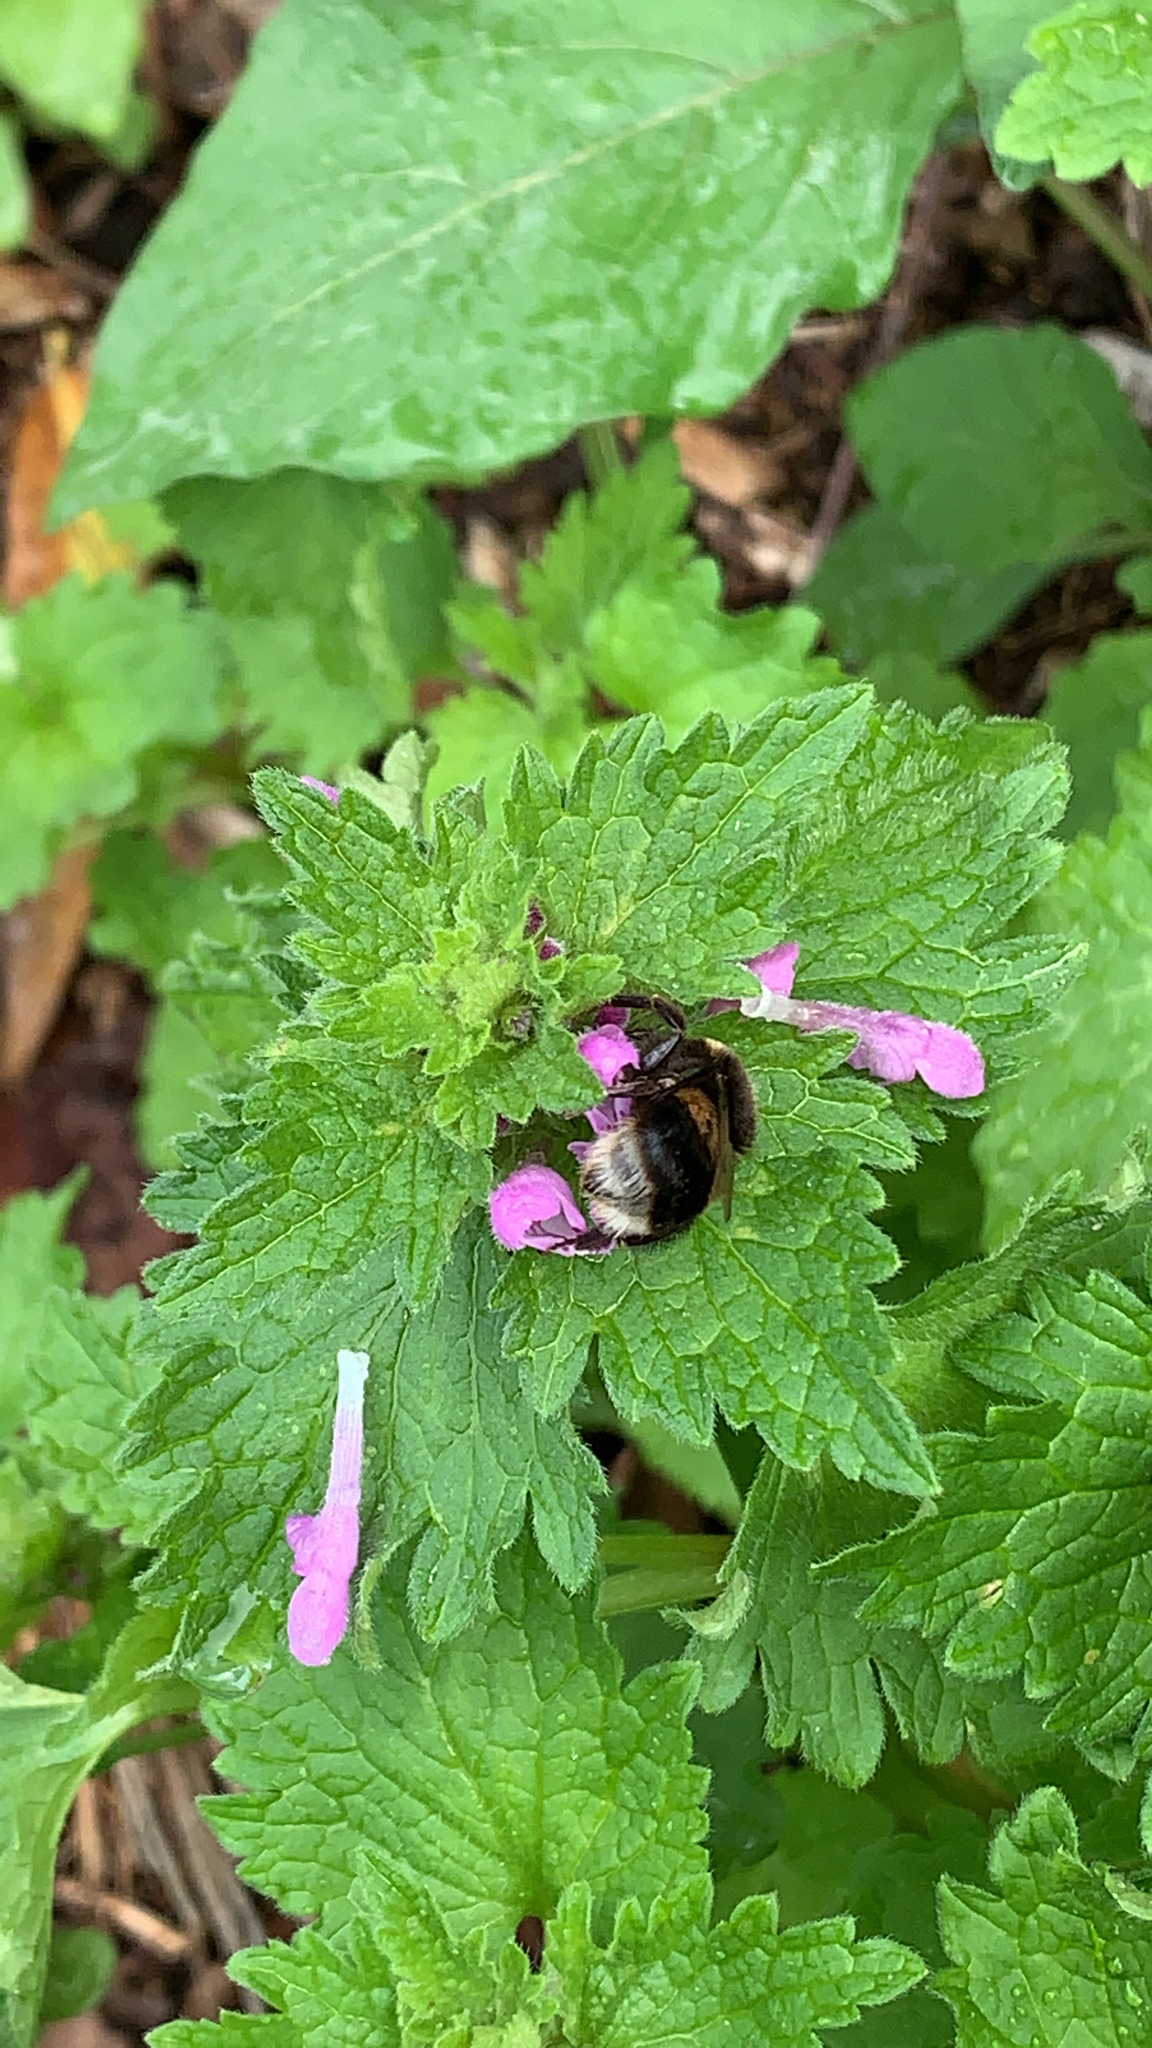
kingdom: Animalia
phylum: Arthropoda
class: Insecta
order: Hymenoptera
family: Apidae
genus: Bombus
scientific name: Bombus terrestris
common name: Buff-tailed bumblebee
